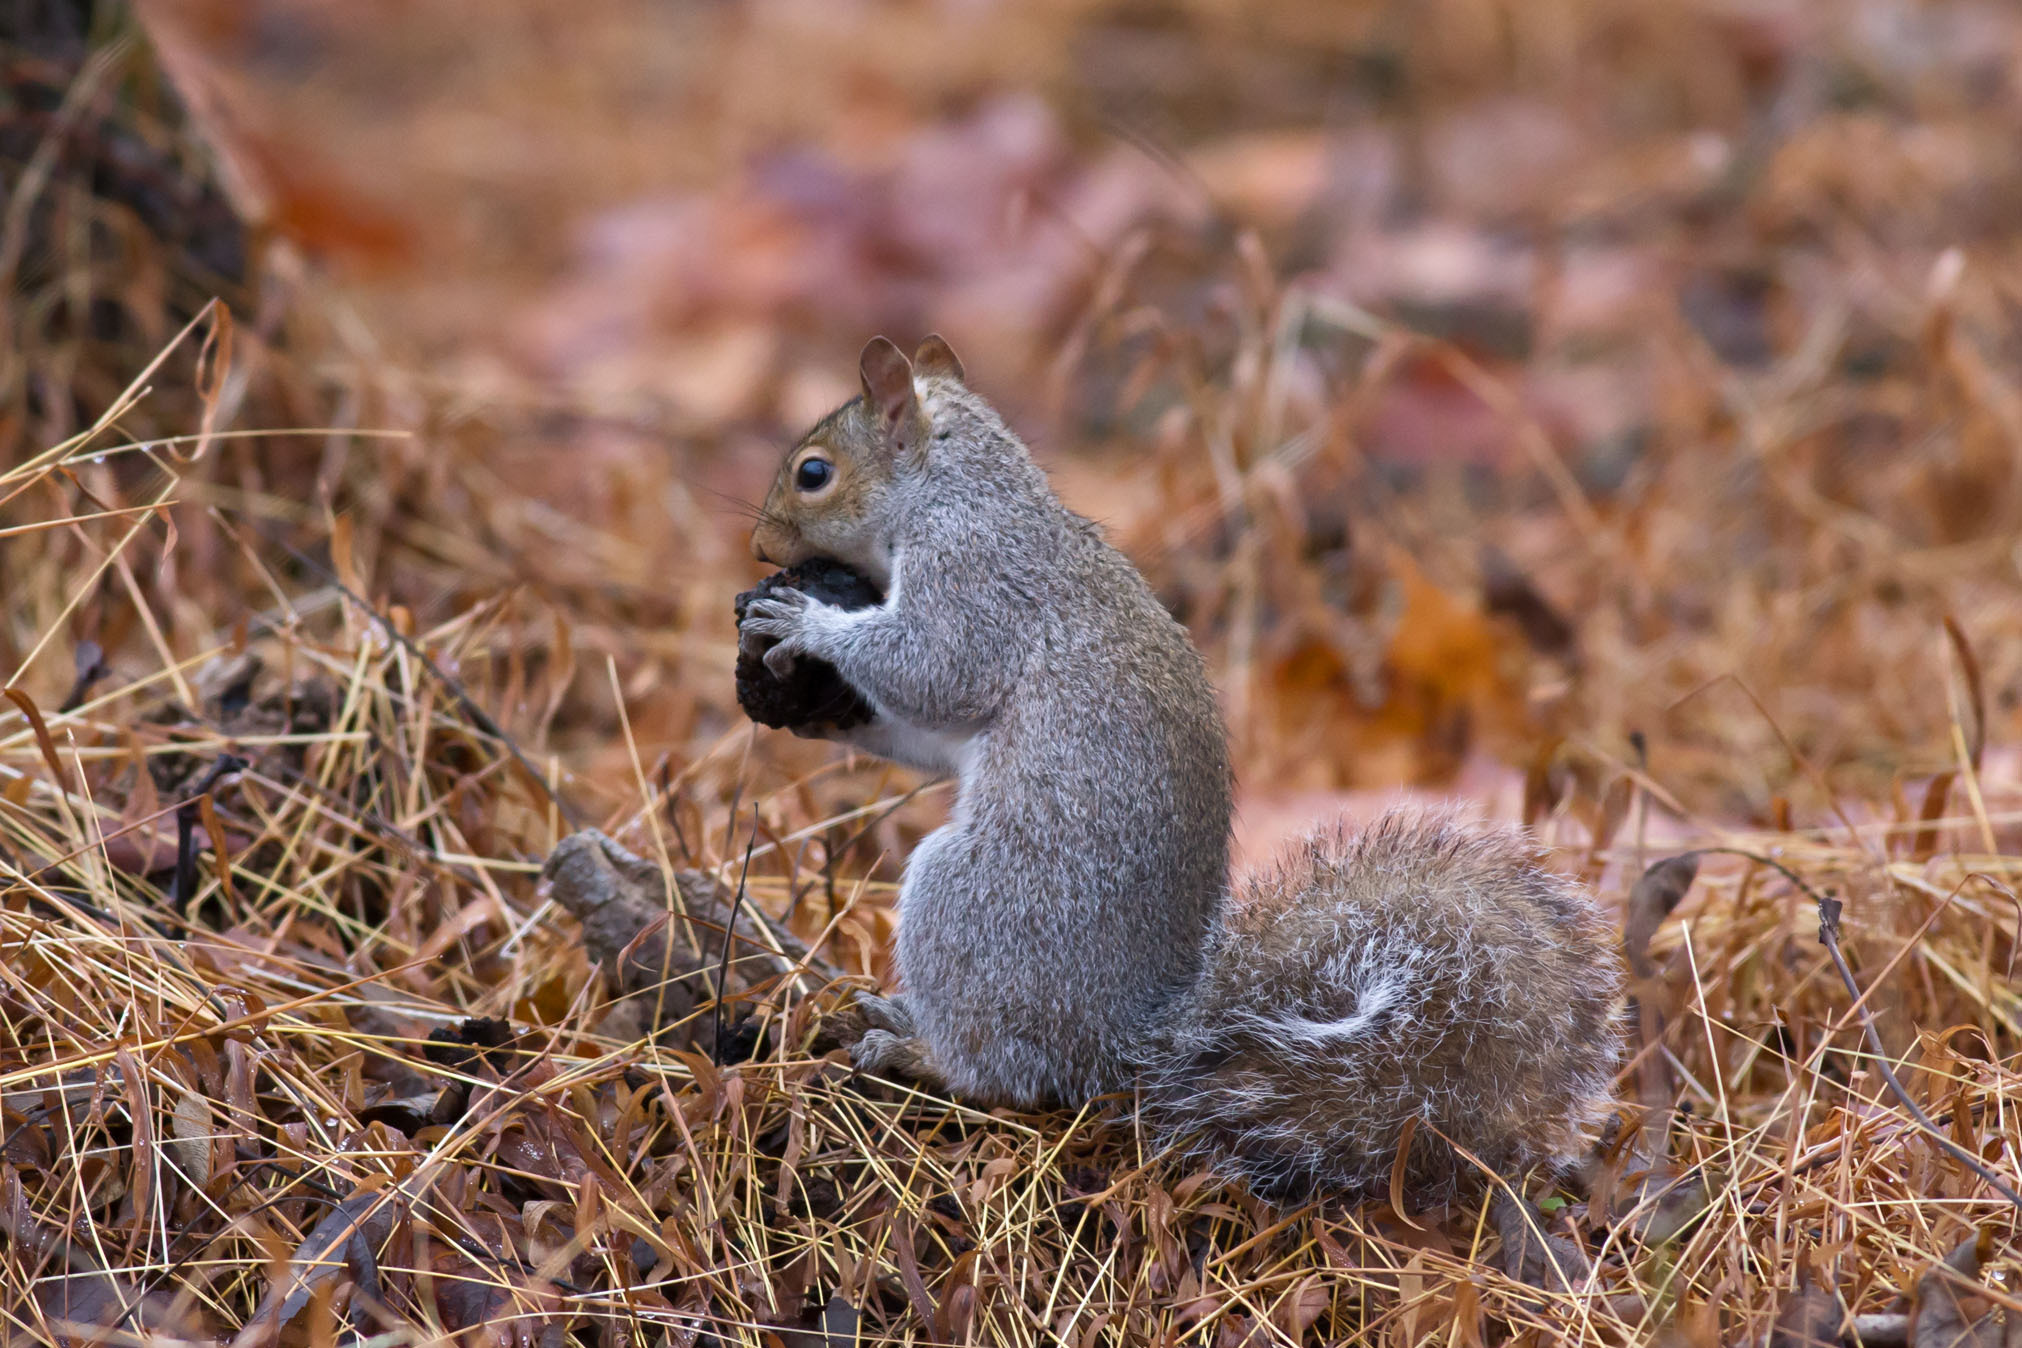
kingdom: Animalia
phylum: Chordata
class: Mammalia
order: Rodentia
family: Sciuridae
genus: Sciurus
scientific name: Sciurus carolinensis
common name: Eastern gray squirrel
